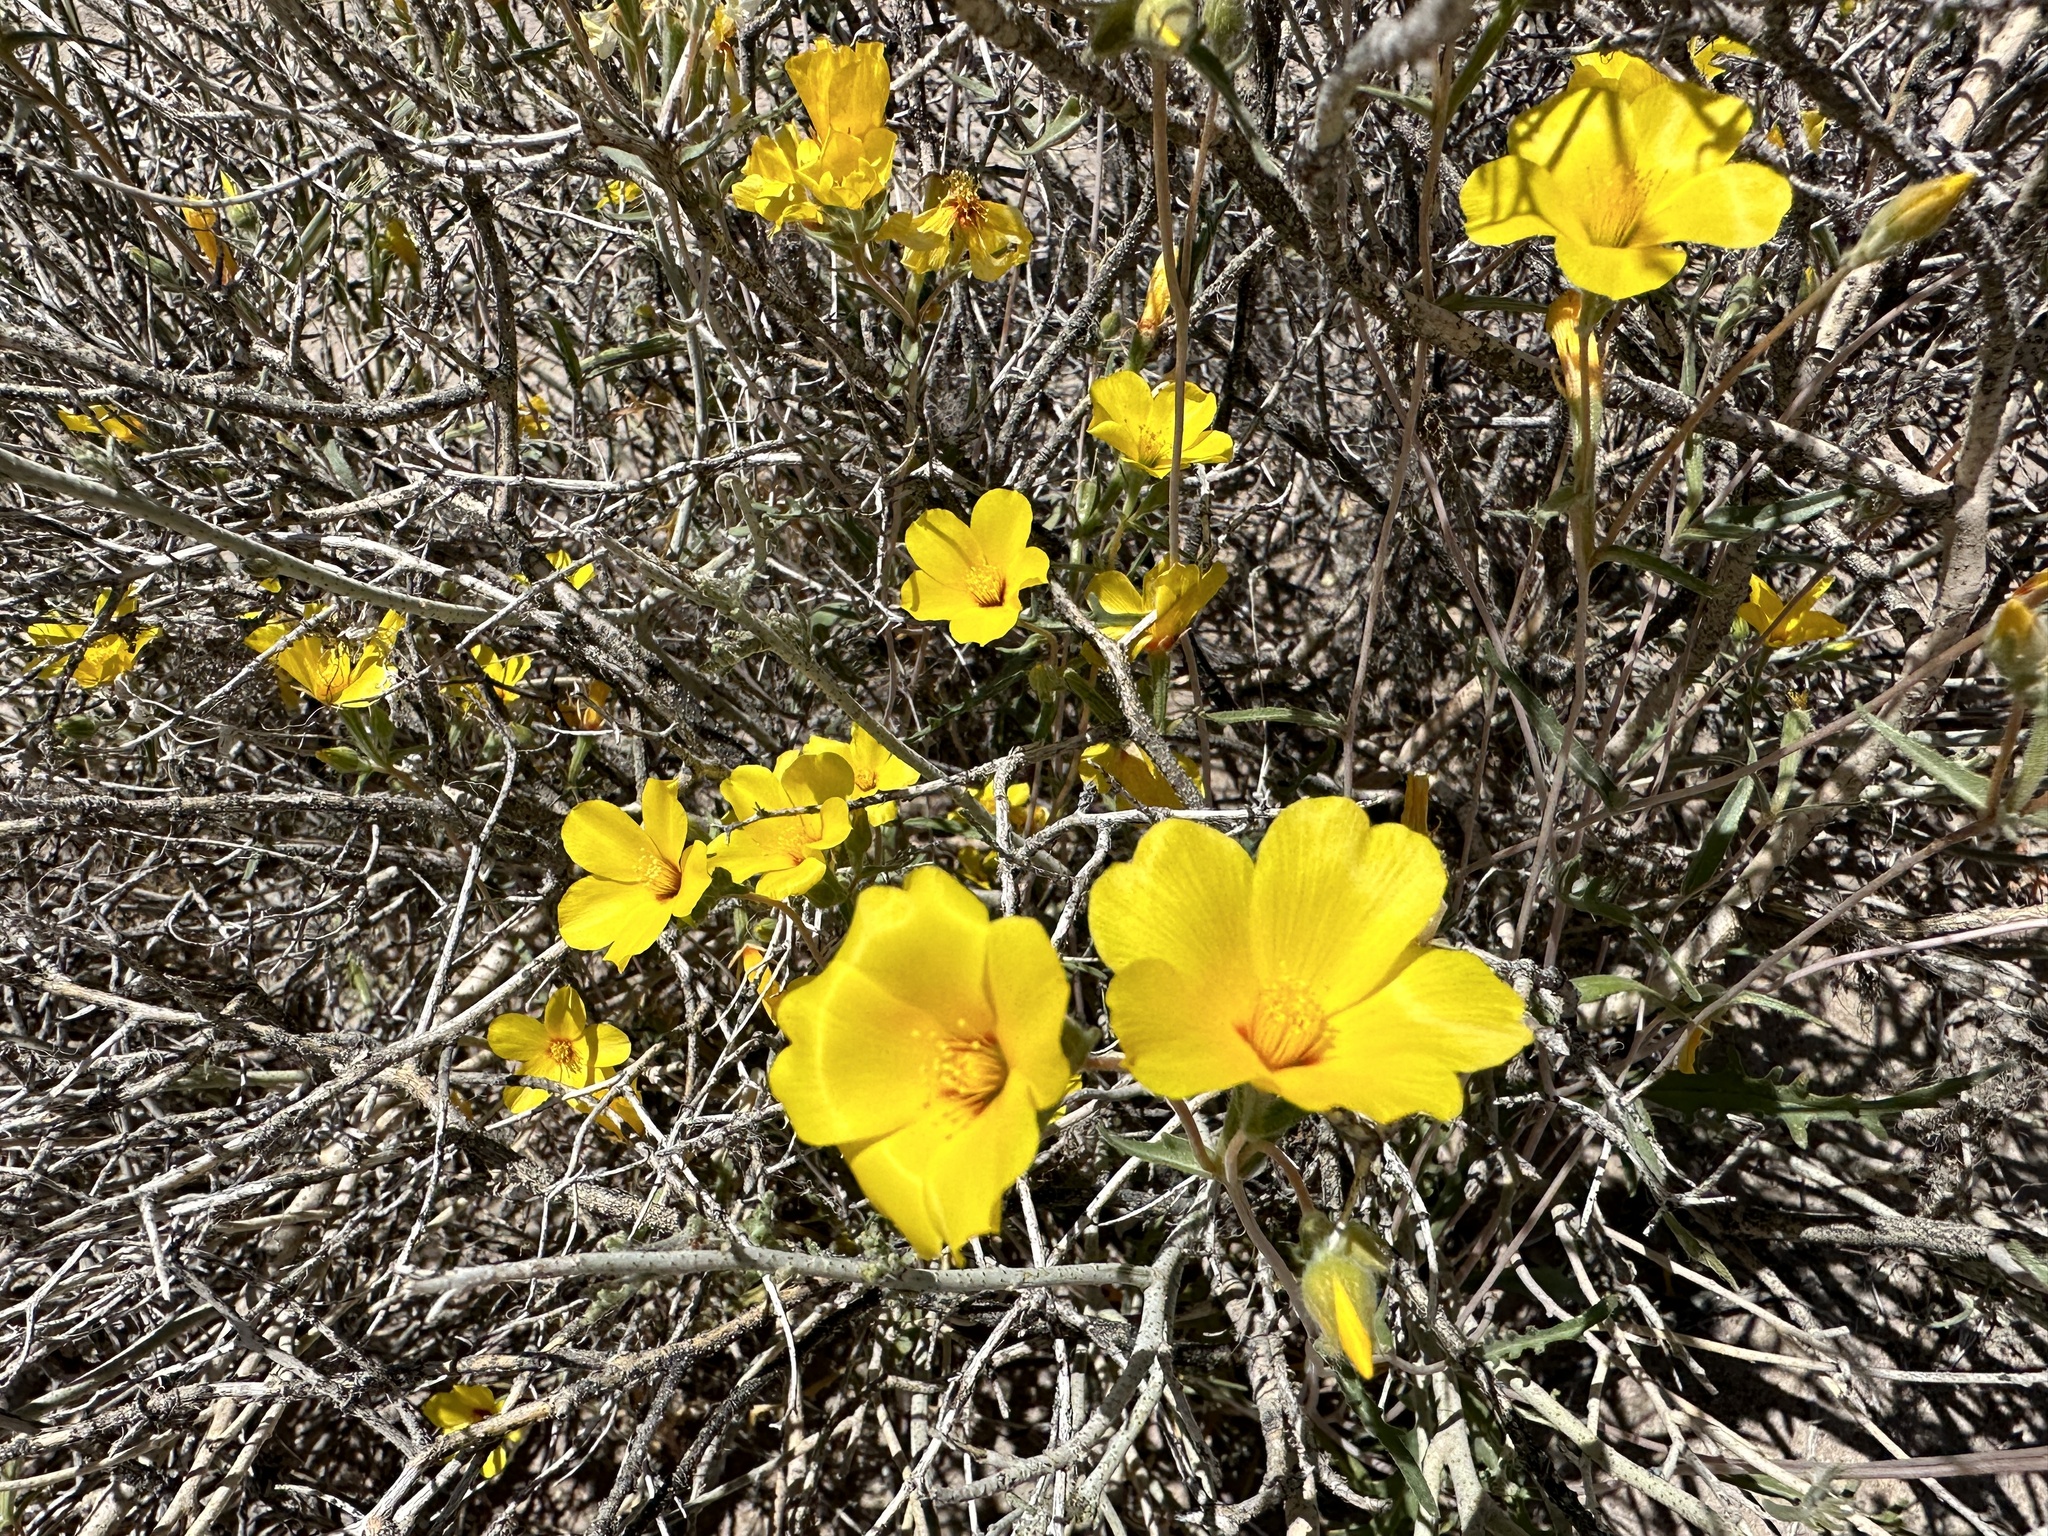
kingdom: Plantae
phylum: Tracheophyta
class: Magnoliopsida
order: Cornales
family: Loasaceae
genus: Mentzelia
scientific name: Mentzelia nitens
